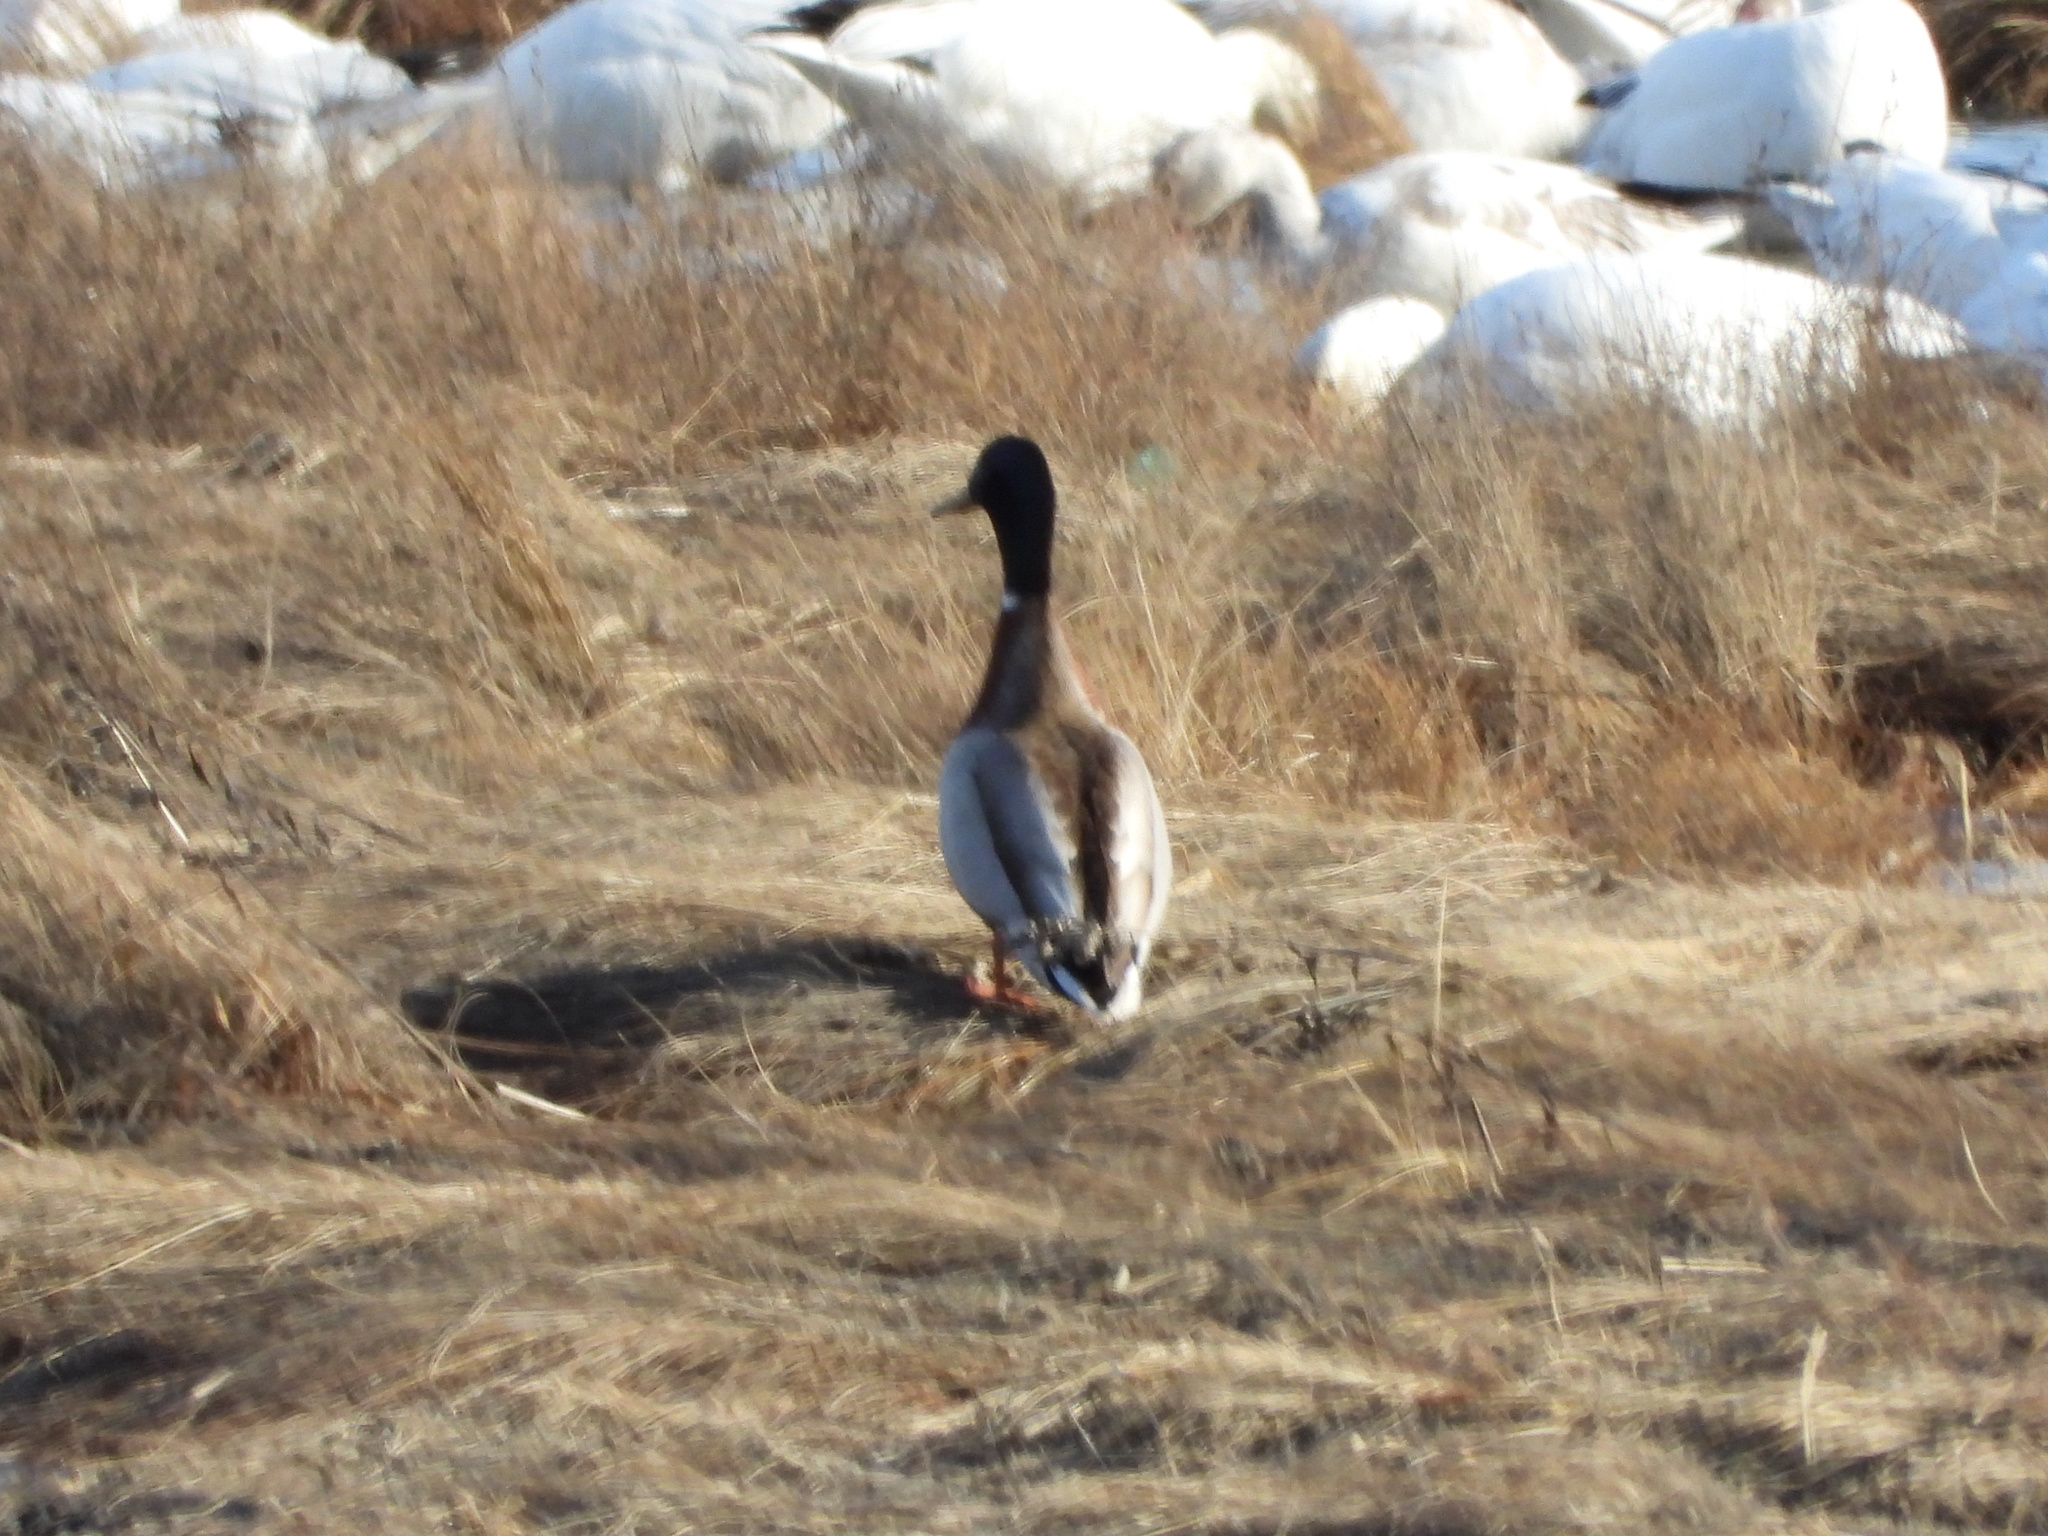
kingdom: Animalia
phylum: Chordata
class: Aves
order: Anseriformes
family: Anatidae
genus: Anas
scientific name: Anas platyrhynchos
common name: Mallard
